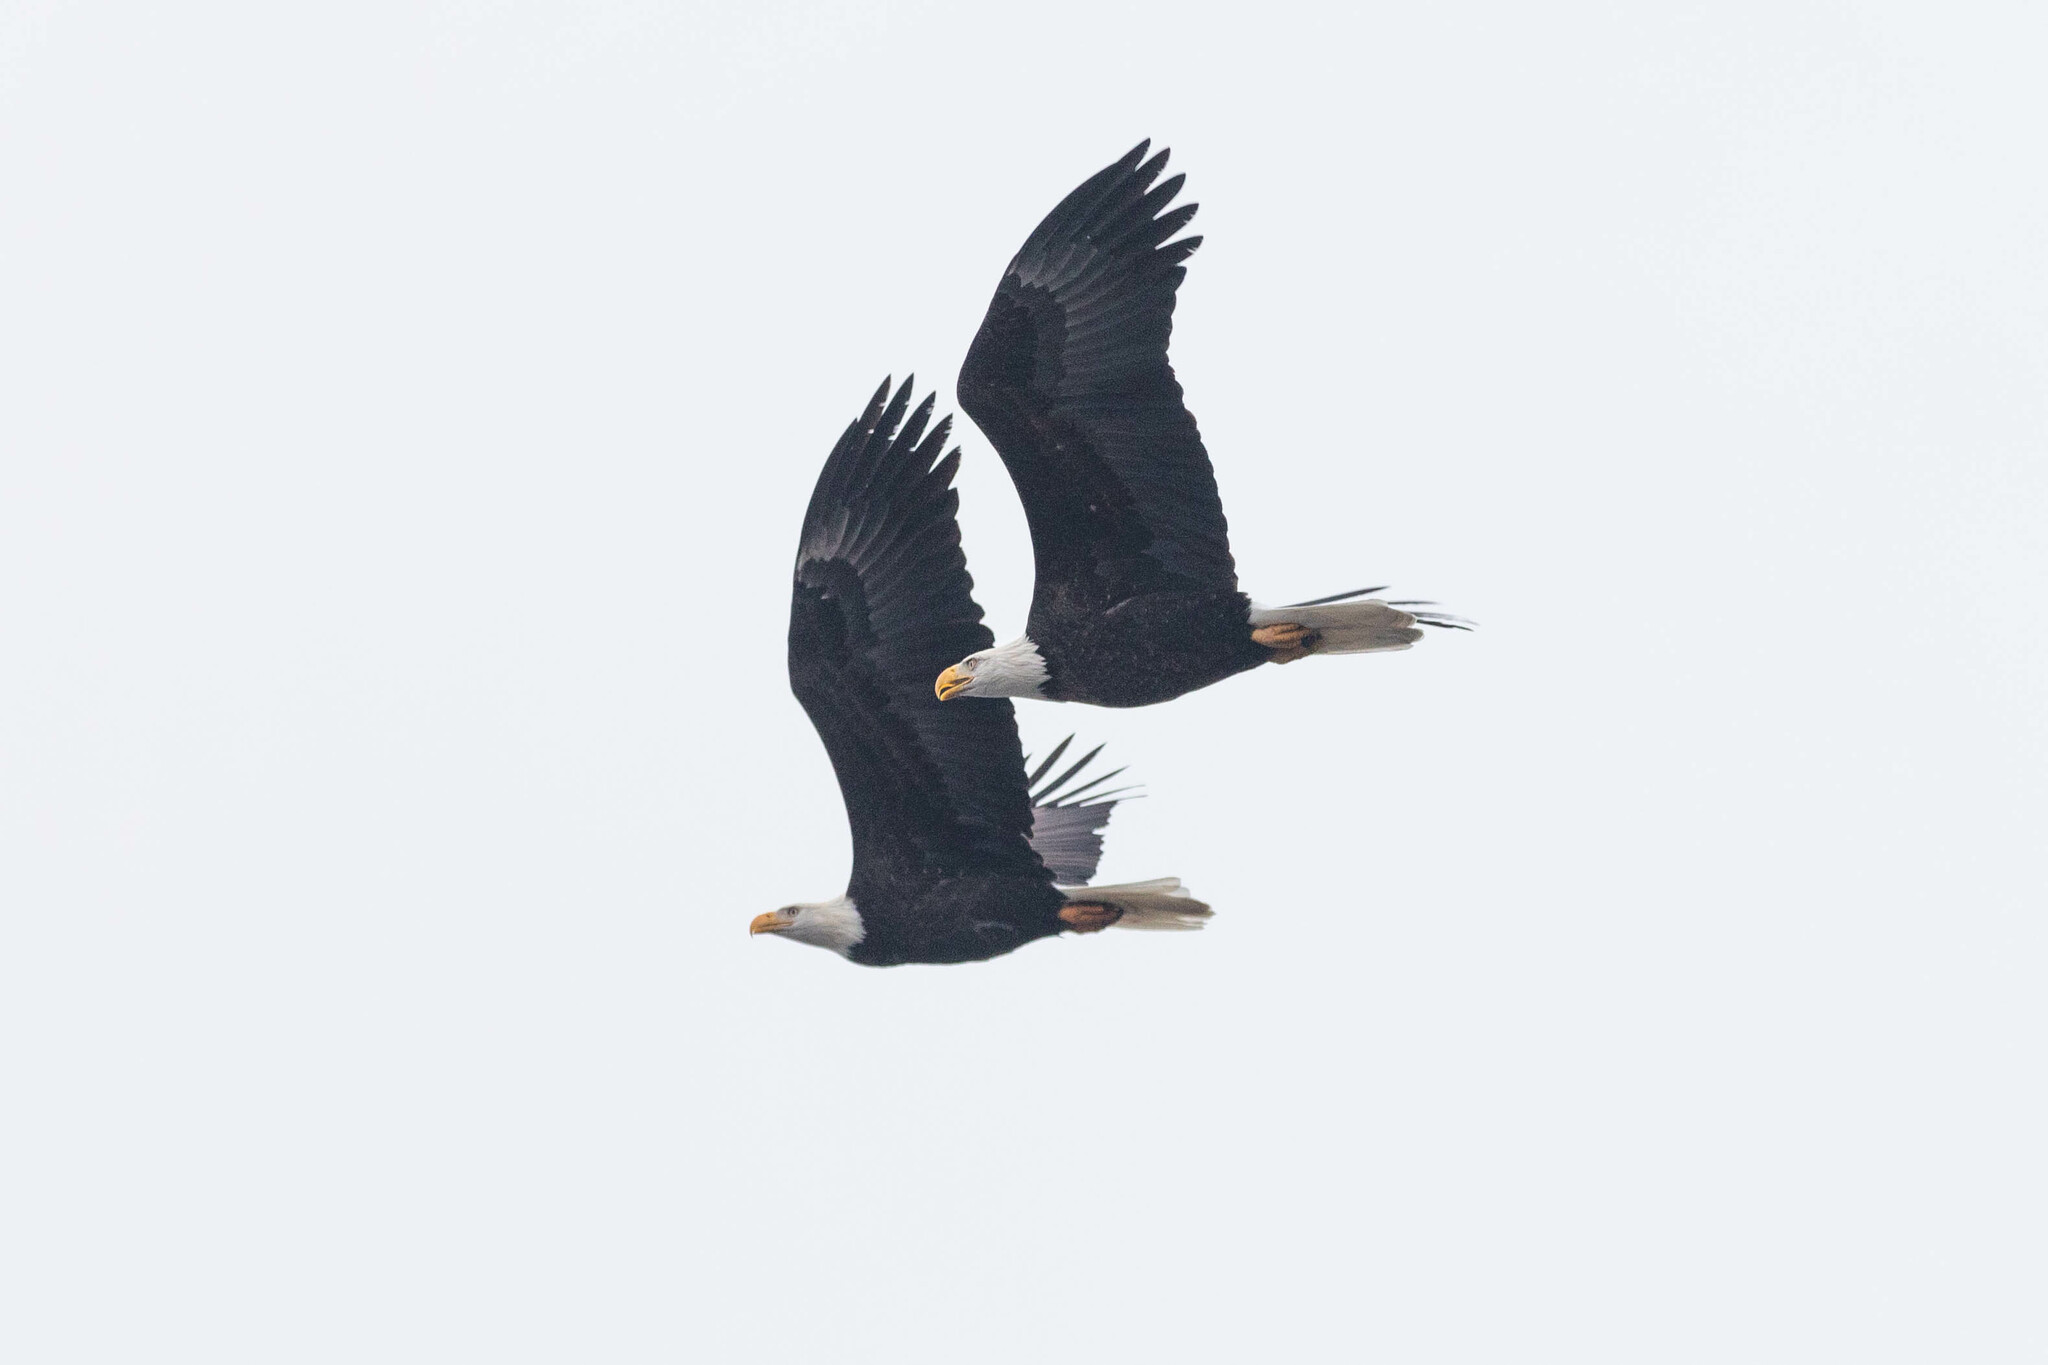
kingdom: Animalia
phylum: Chordata
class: Aves
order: Accipitriformes
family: Accipitridae
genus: Haliaeetus
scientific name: Haliaeetus leucocephalus
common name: Bald eagle
